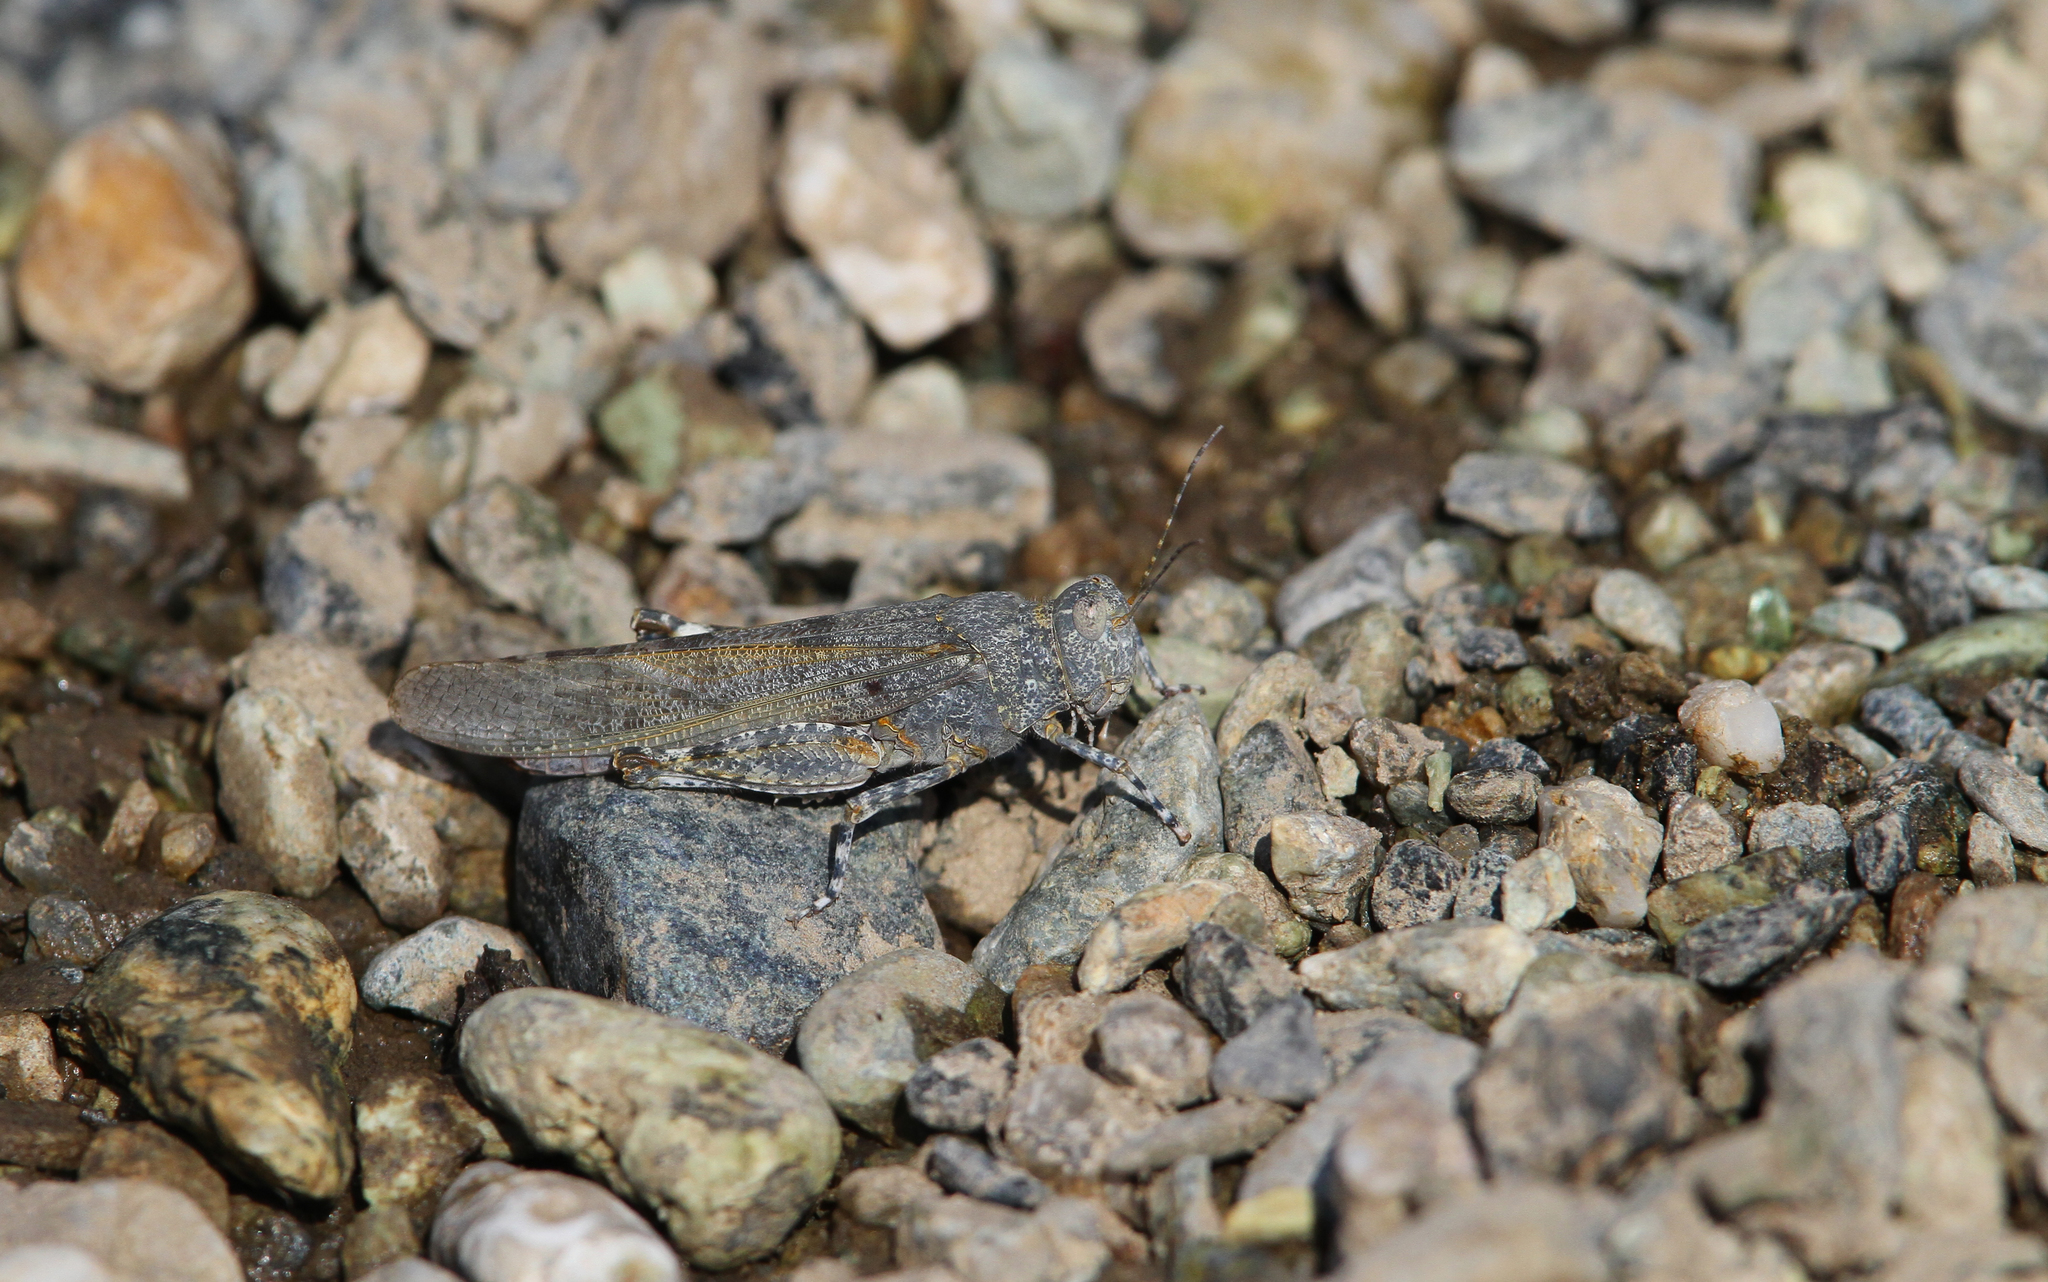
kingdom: Animalia
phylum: Arthropoda
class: Insecta
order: Orthoptera
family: Acrididae
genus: Sphingonotus
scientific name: Sphingonotus corsicus
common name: Corsican sand grasshopper
